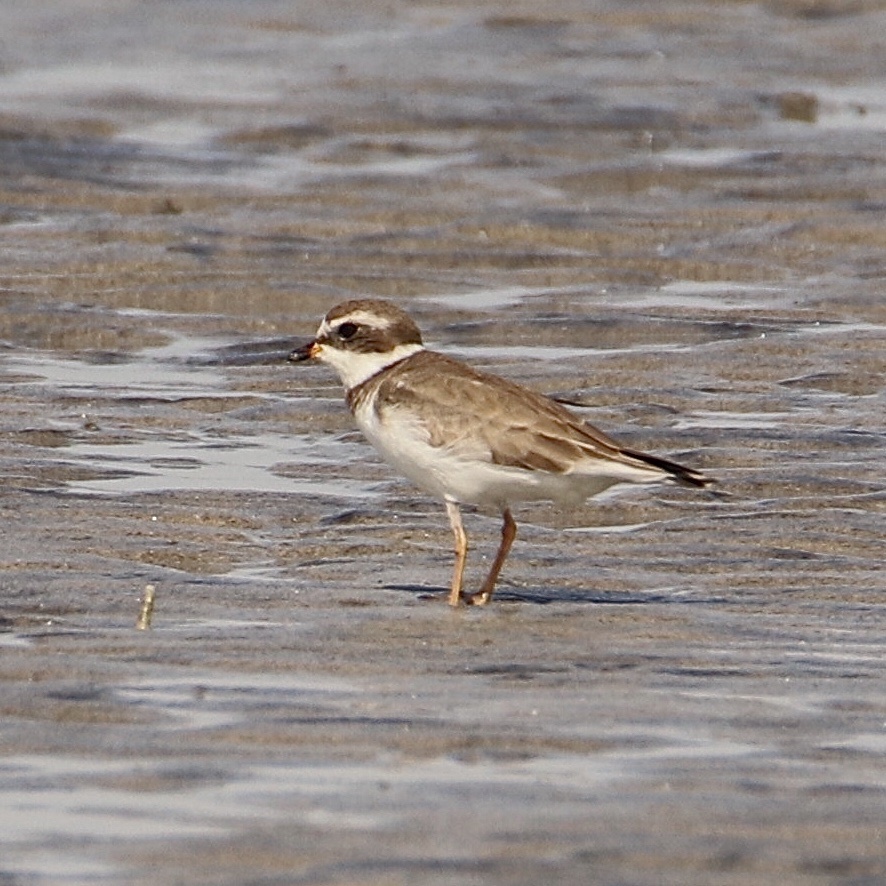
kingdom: Animalia
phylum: Chordata
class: Aves
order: Charadriiformes
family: Charadriidae
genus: Charadrius
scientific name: Charadrius semipalmatus
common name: Semipalmated plover
